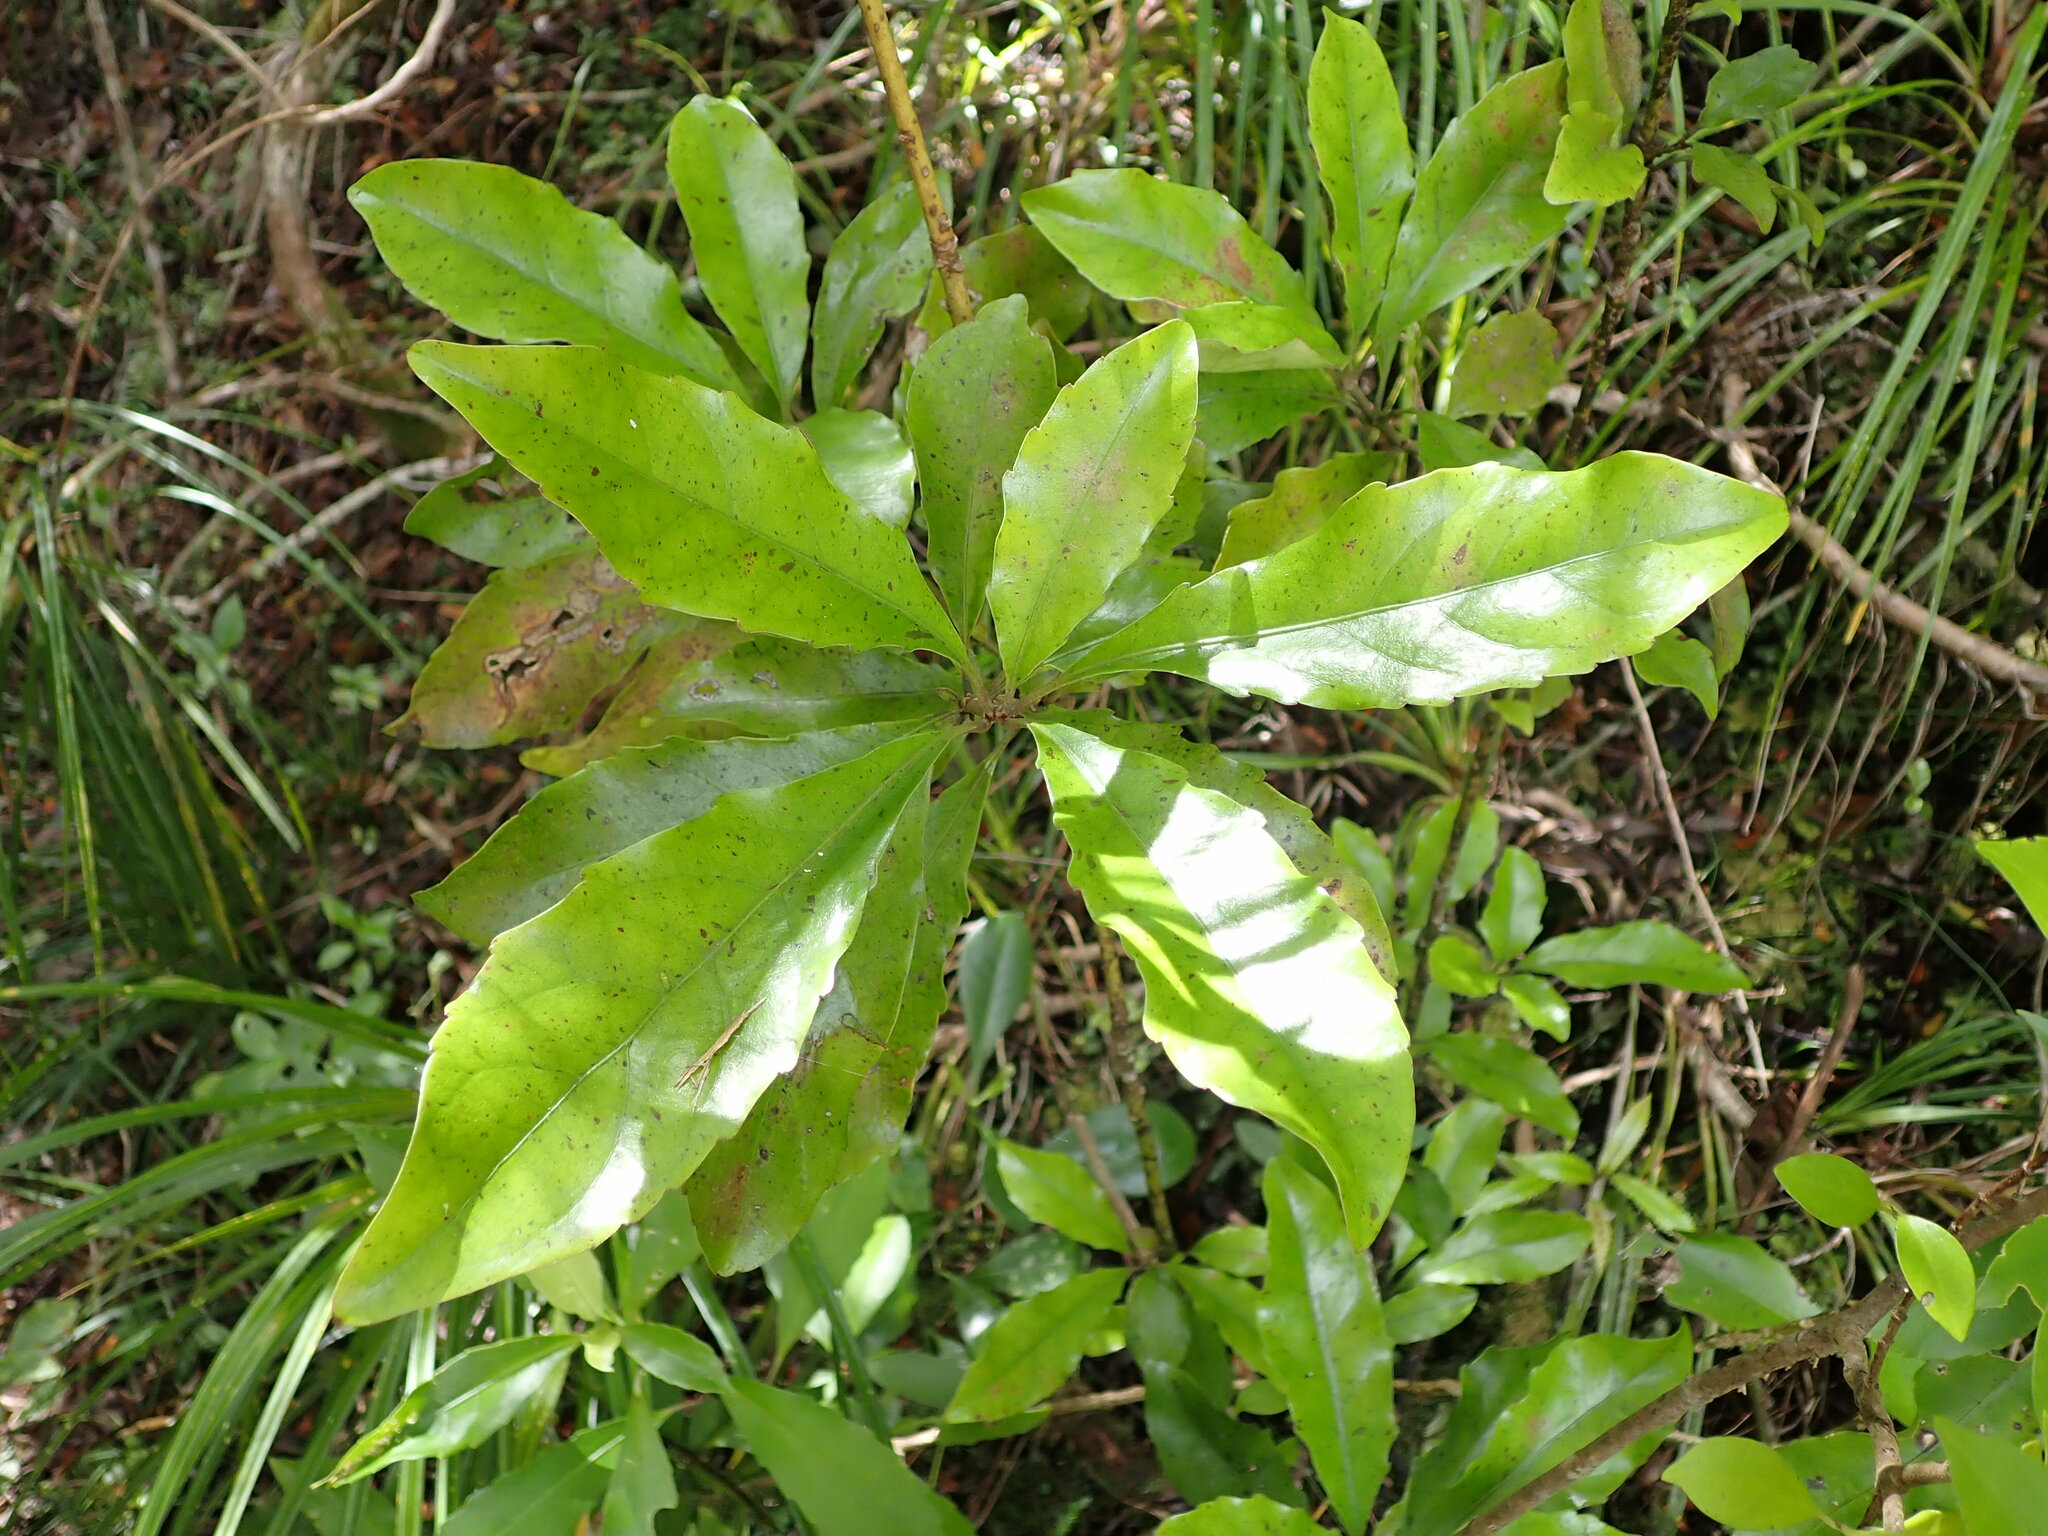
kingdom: Plantae
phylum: Tracheophyta
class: Magnoliopsida
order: Asterales
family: Alseuosmiaceae
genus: Alseuosmia
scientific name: Alseuosmia macrophylla
